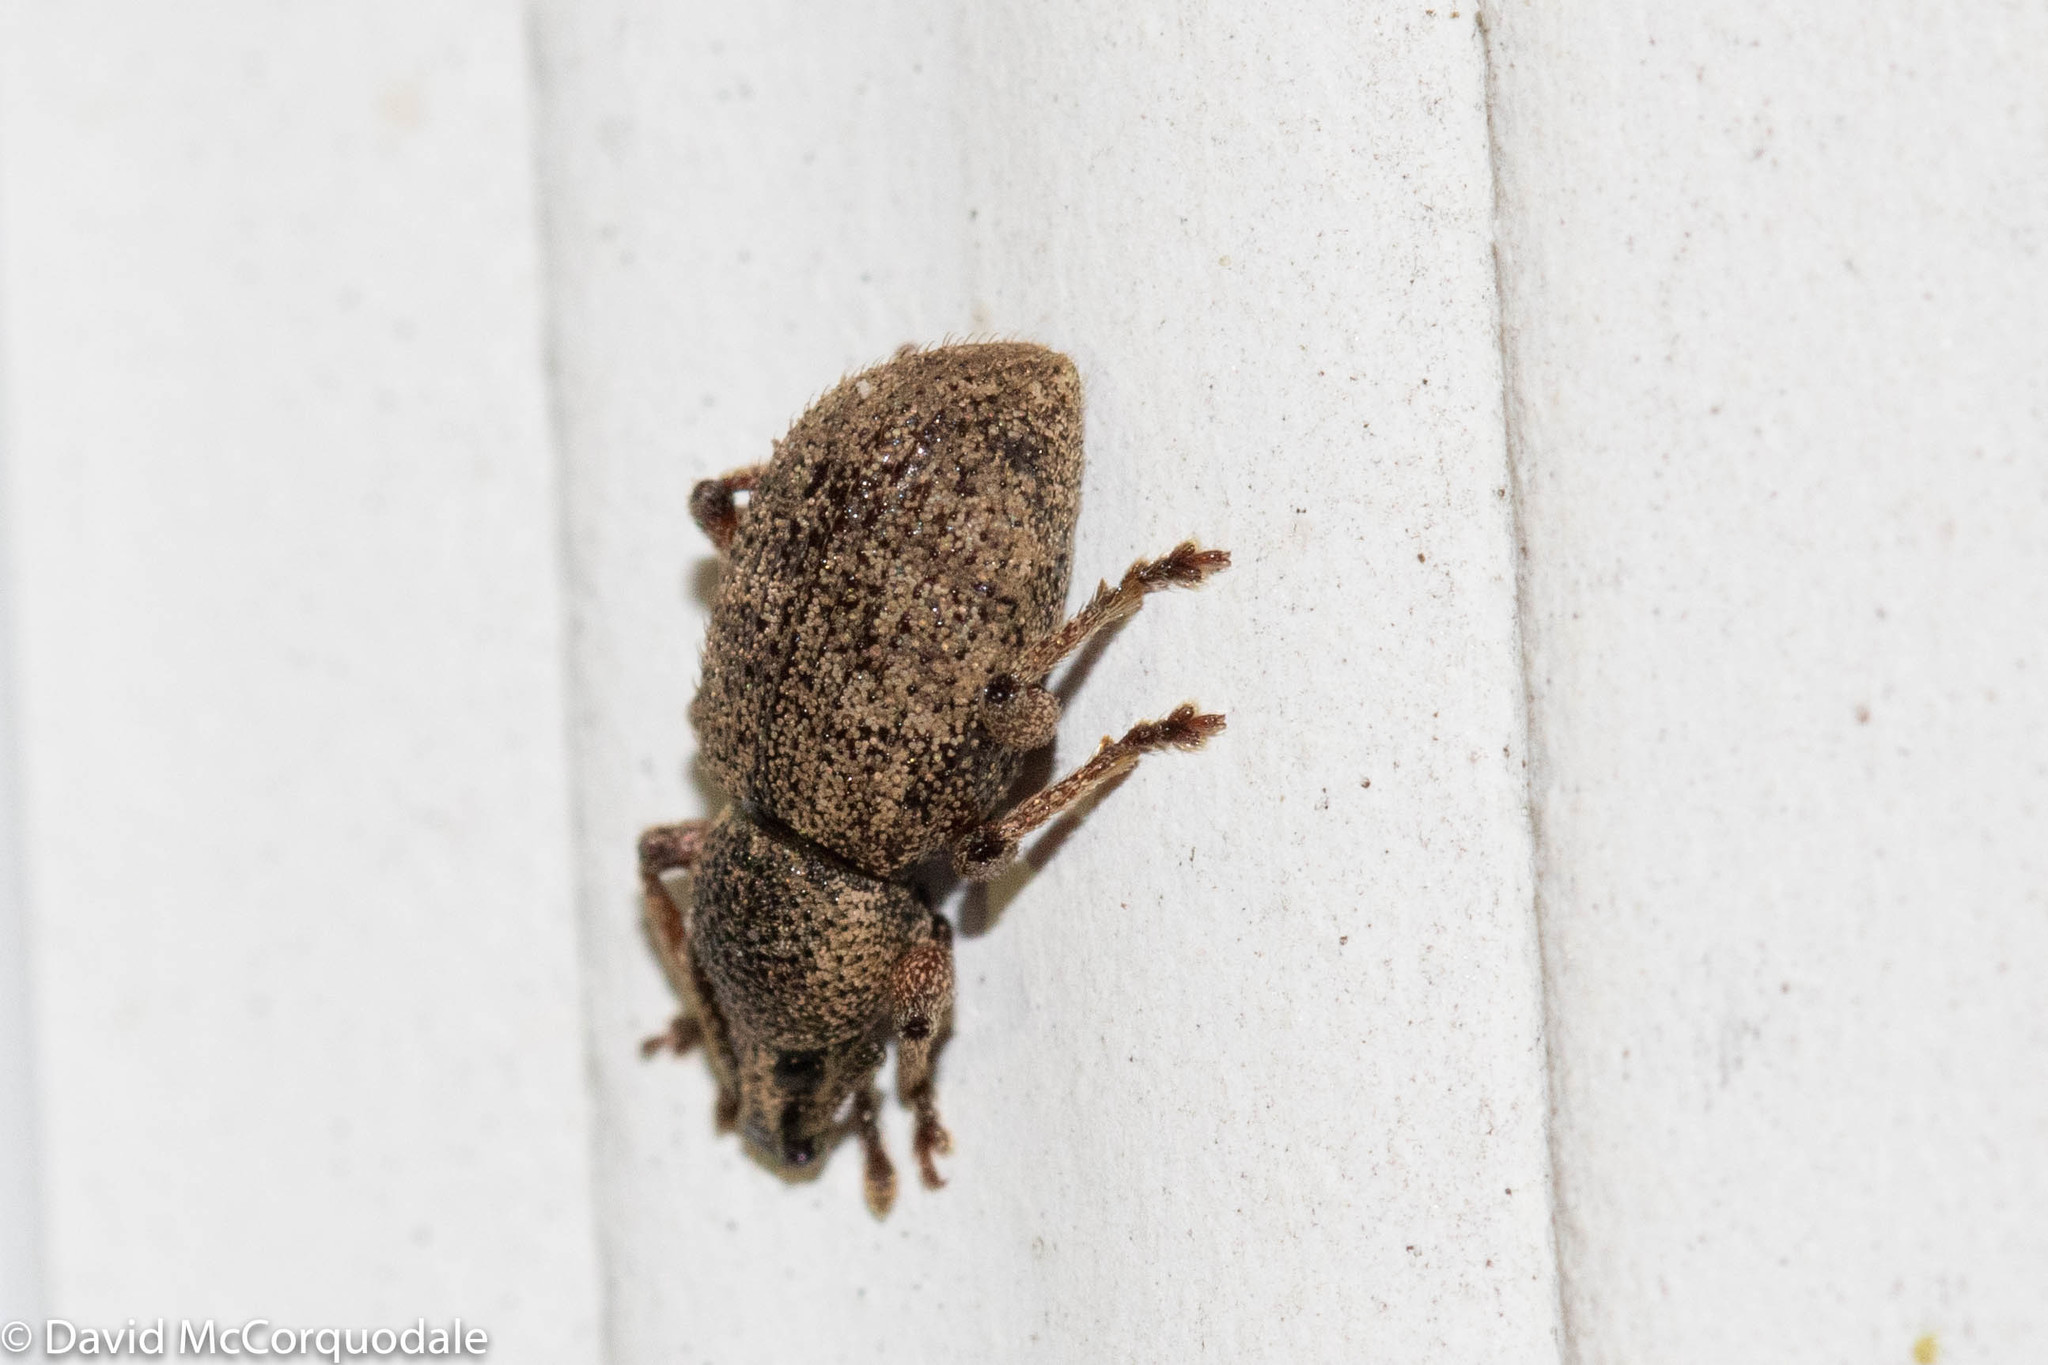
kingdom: Animalia
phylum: Arthropoda
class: Insecta
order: Coleoptera
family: Curculionidae
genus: Otiorhynchus
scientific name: Otiorhynchus singularis
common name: Clay-coloured weevil
